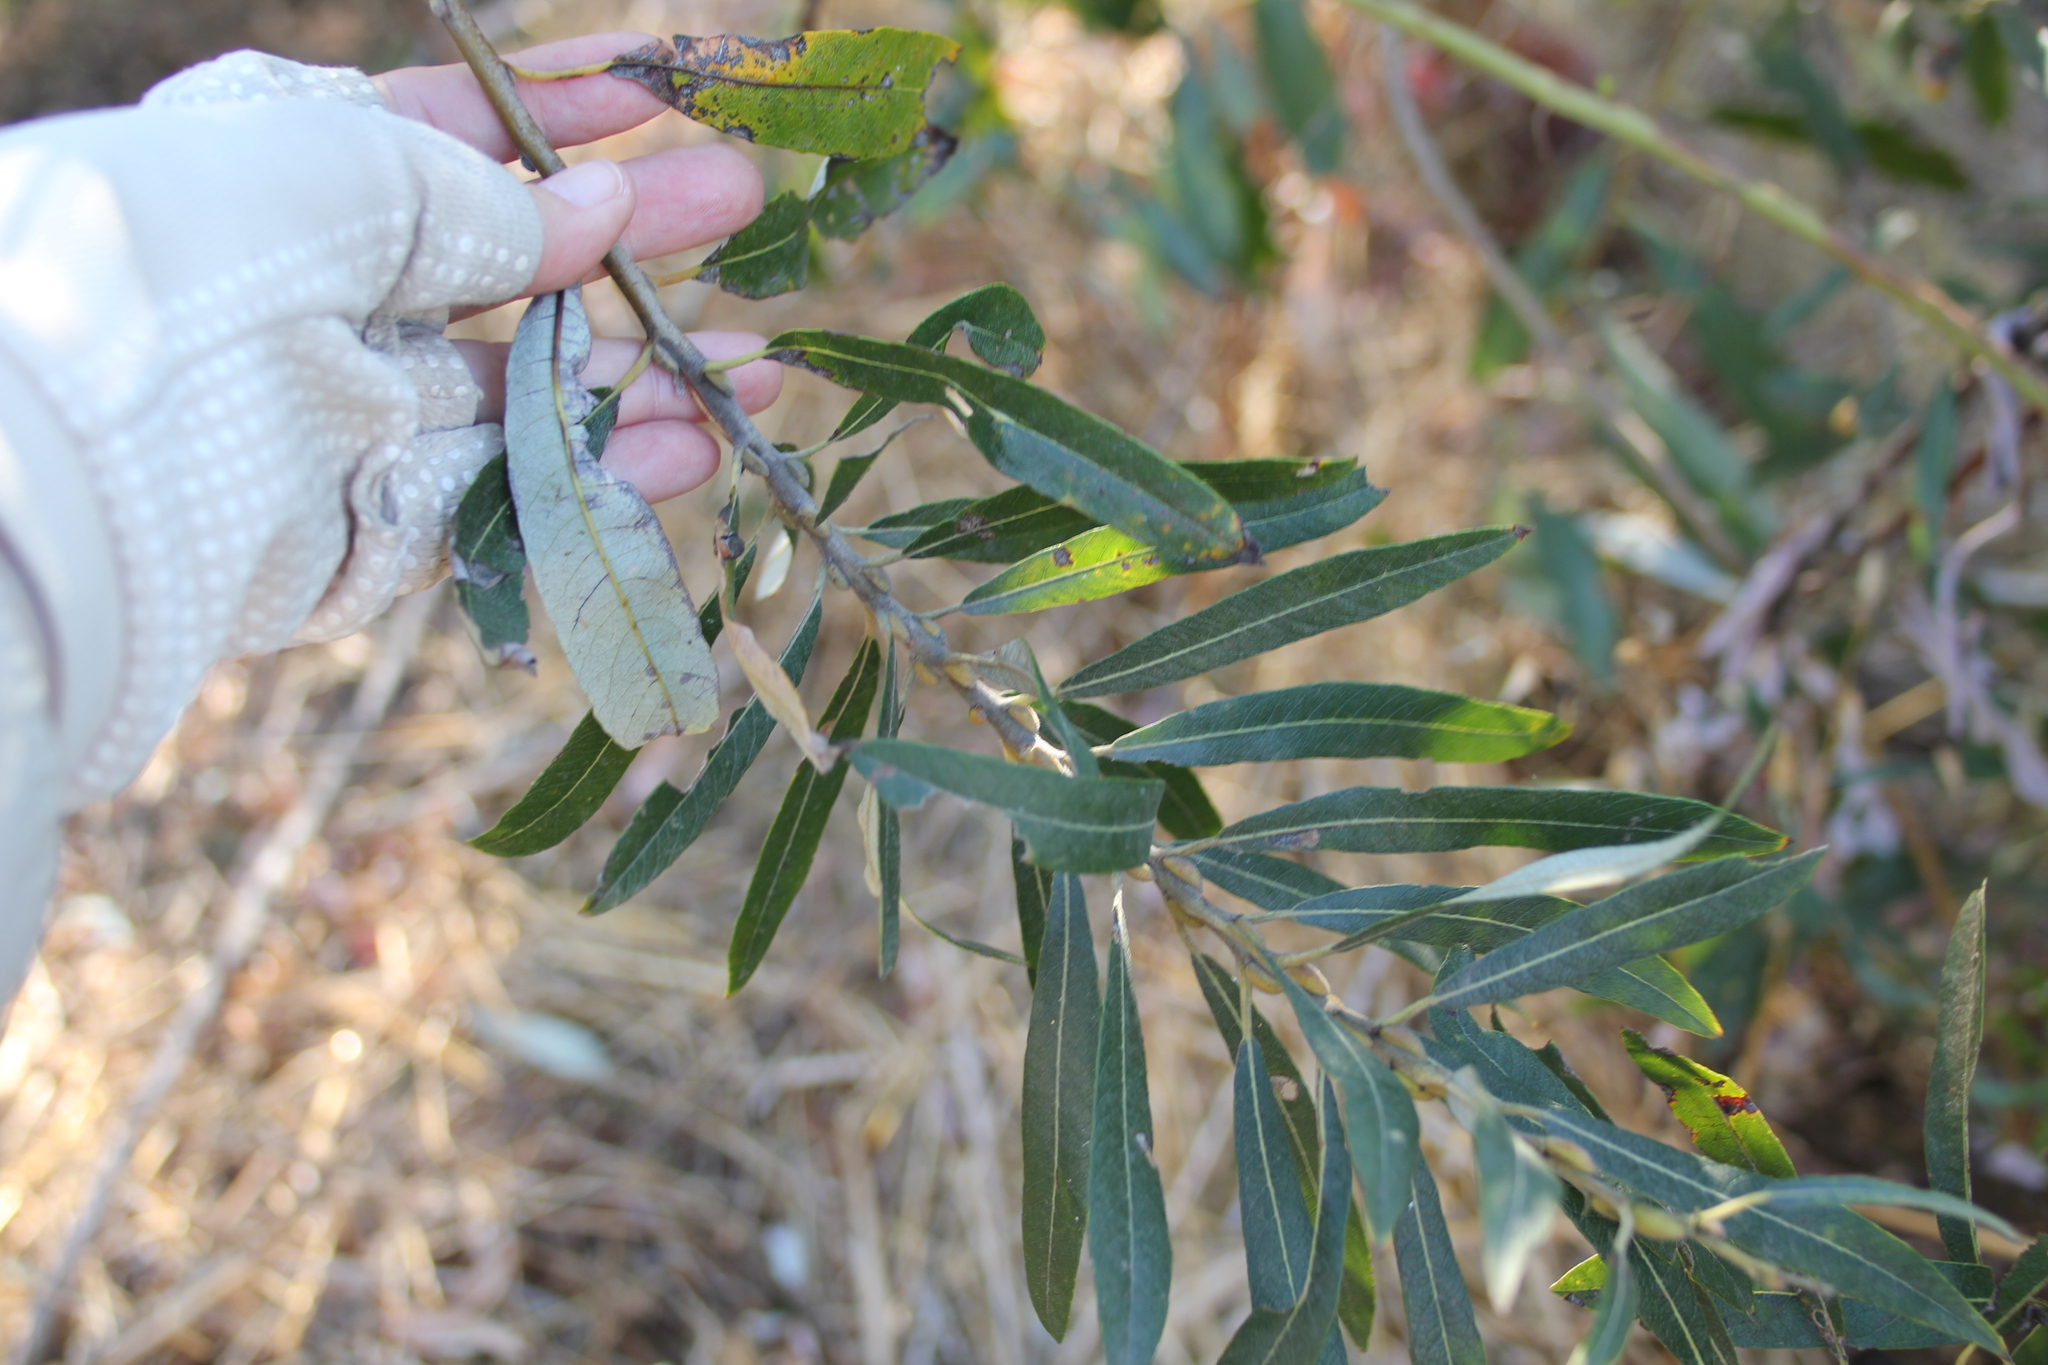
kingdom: Plantae
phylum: Tracheophyta
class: Magnoliopsida
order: Malpighiales
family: Salicaceae
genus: Salix
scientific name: Salix lasiolepis
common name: Arroyo willow
